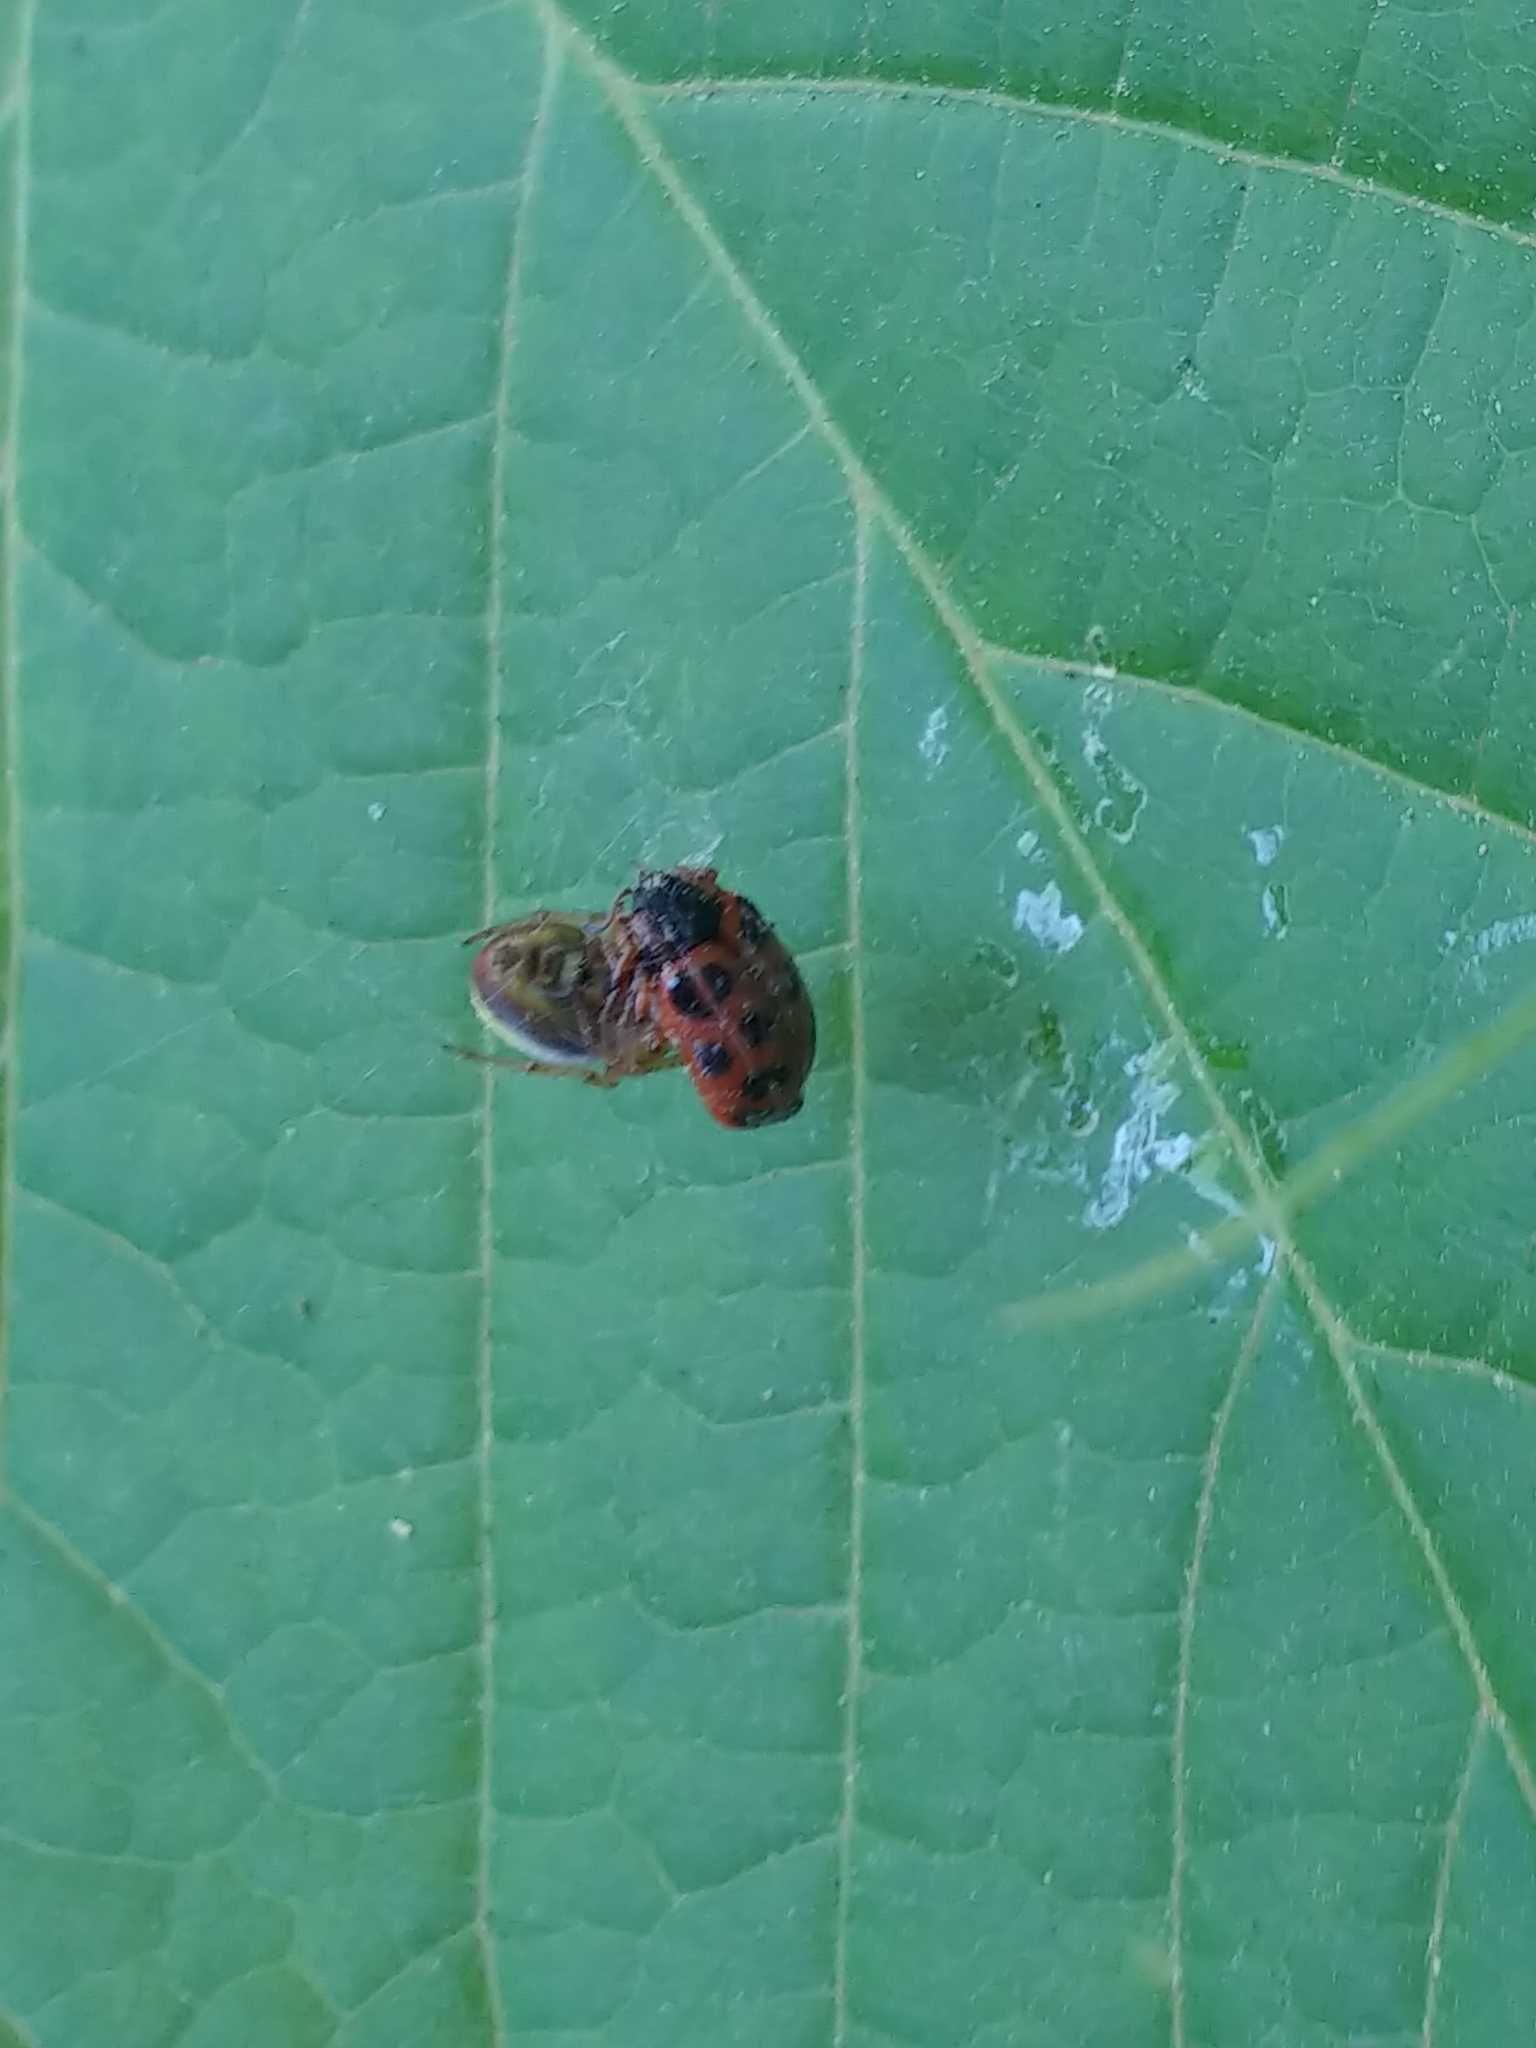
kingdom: Animalia
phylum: Arthropoda
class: Arachnida
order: Araneae
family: Araneidae
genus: Araniella
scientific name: Araniella displicata
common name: Sixspotted orb weaver
